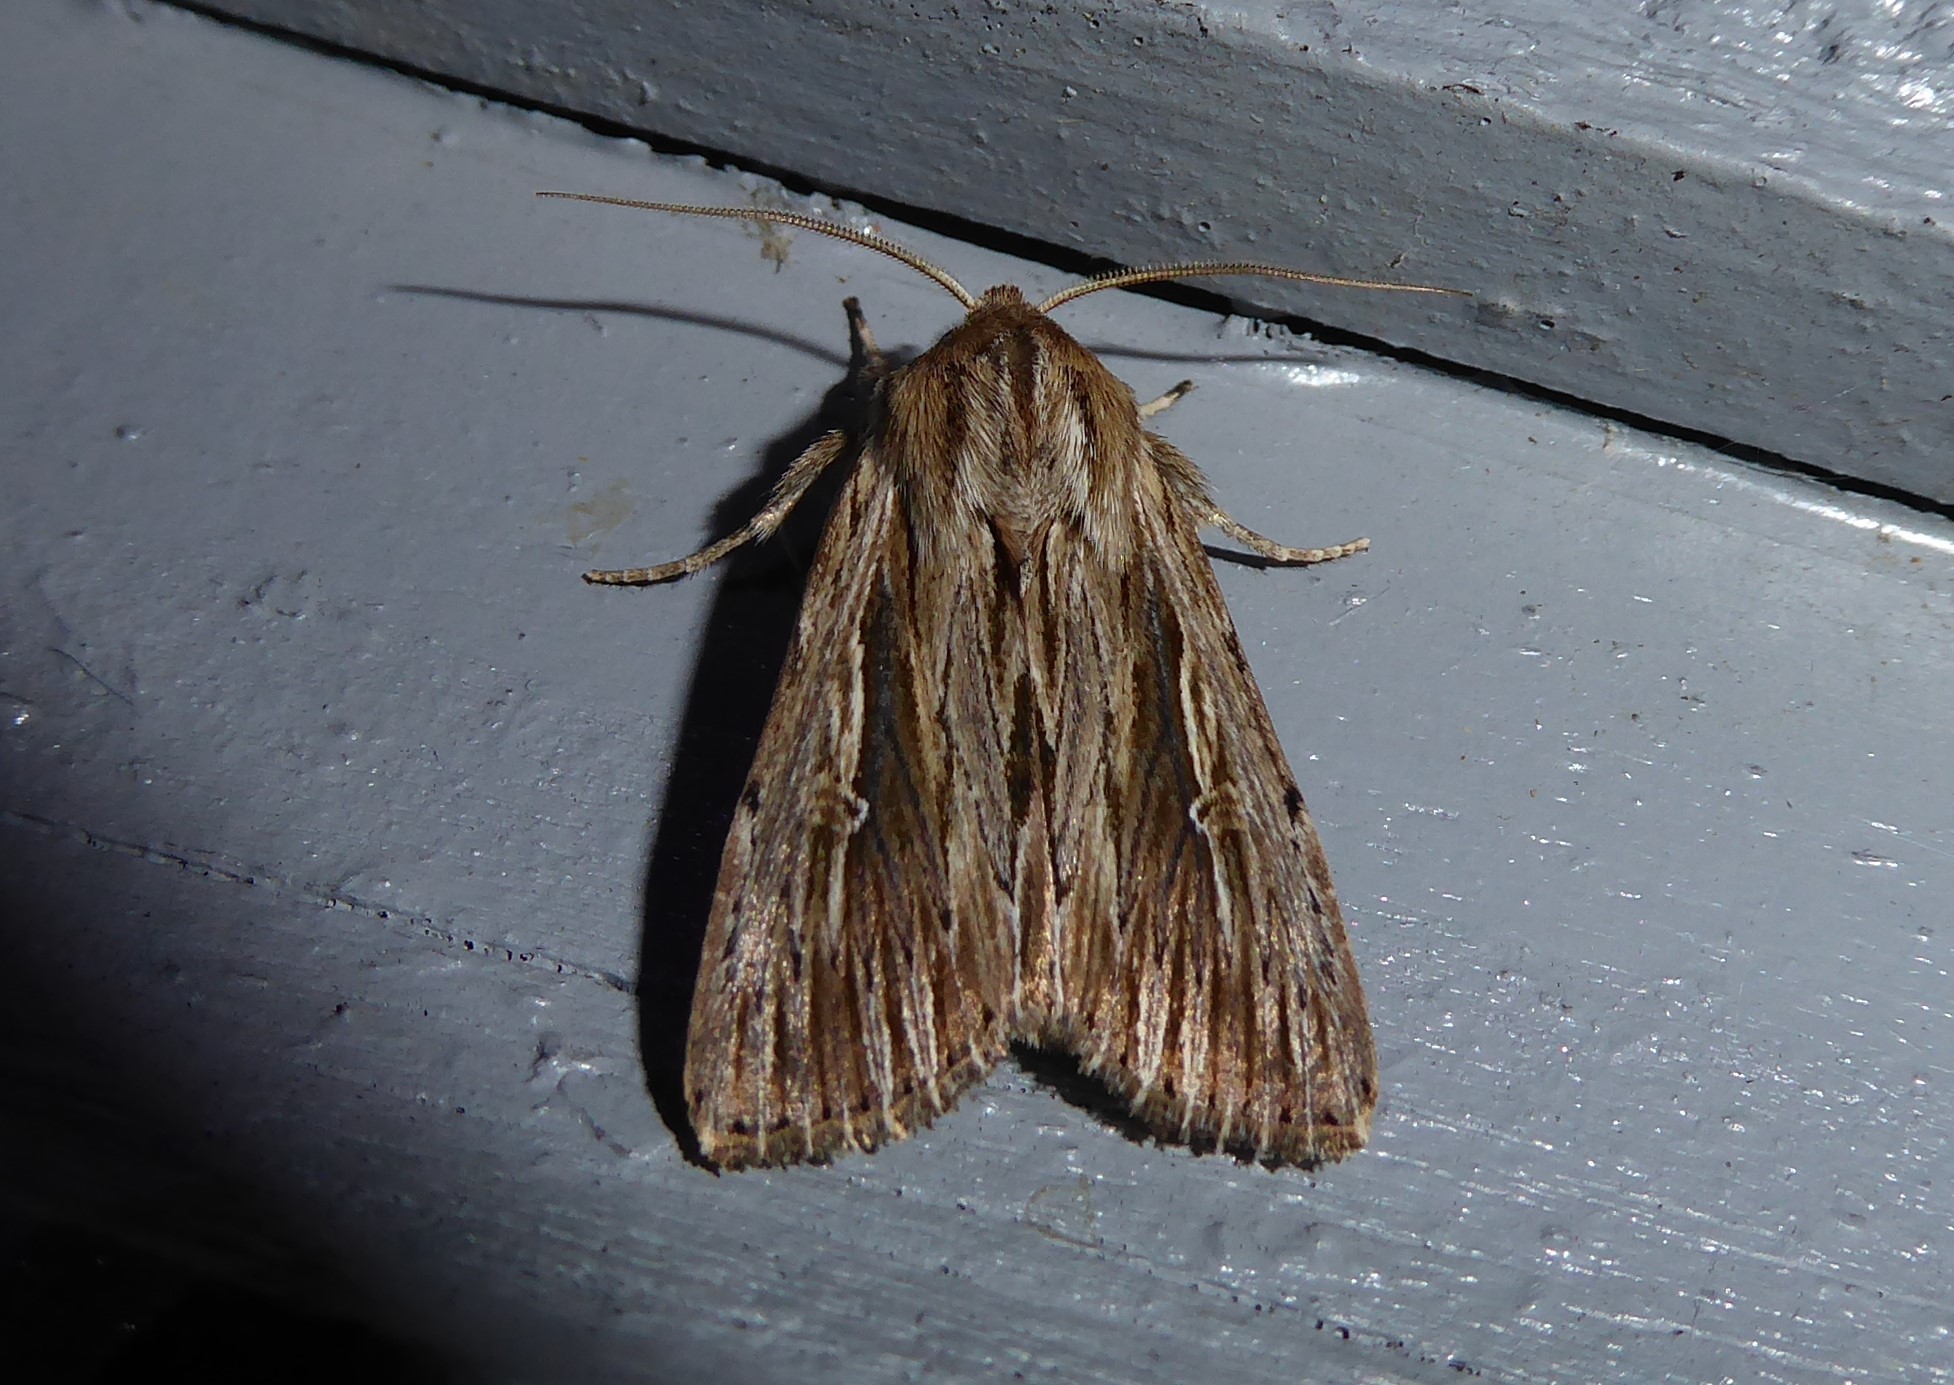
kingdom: Animalia
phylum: Arthropoda
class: Insecta
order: Lepidoptera
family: Noctuidae
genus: Persectania
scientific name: Persectania aversa
